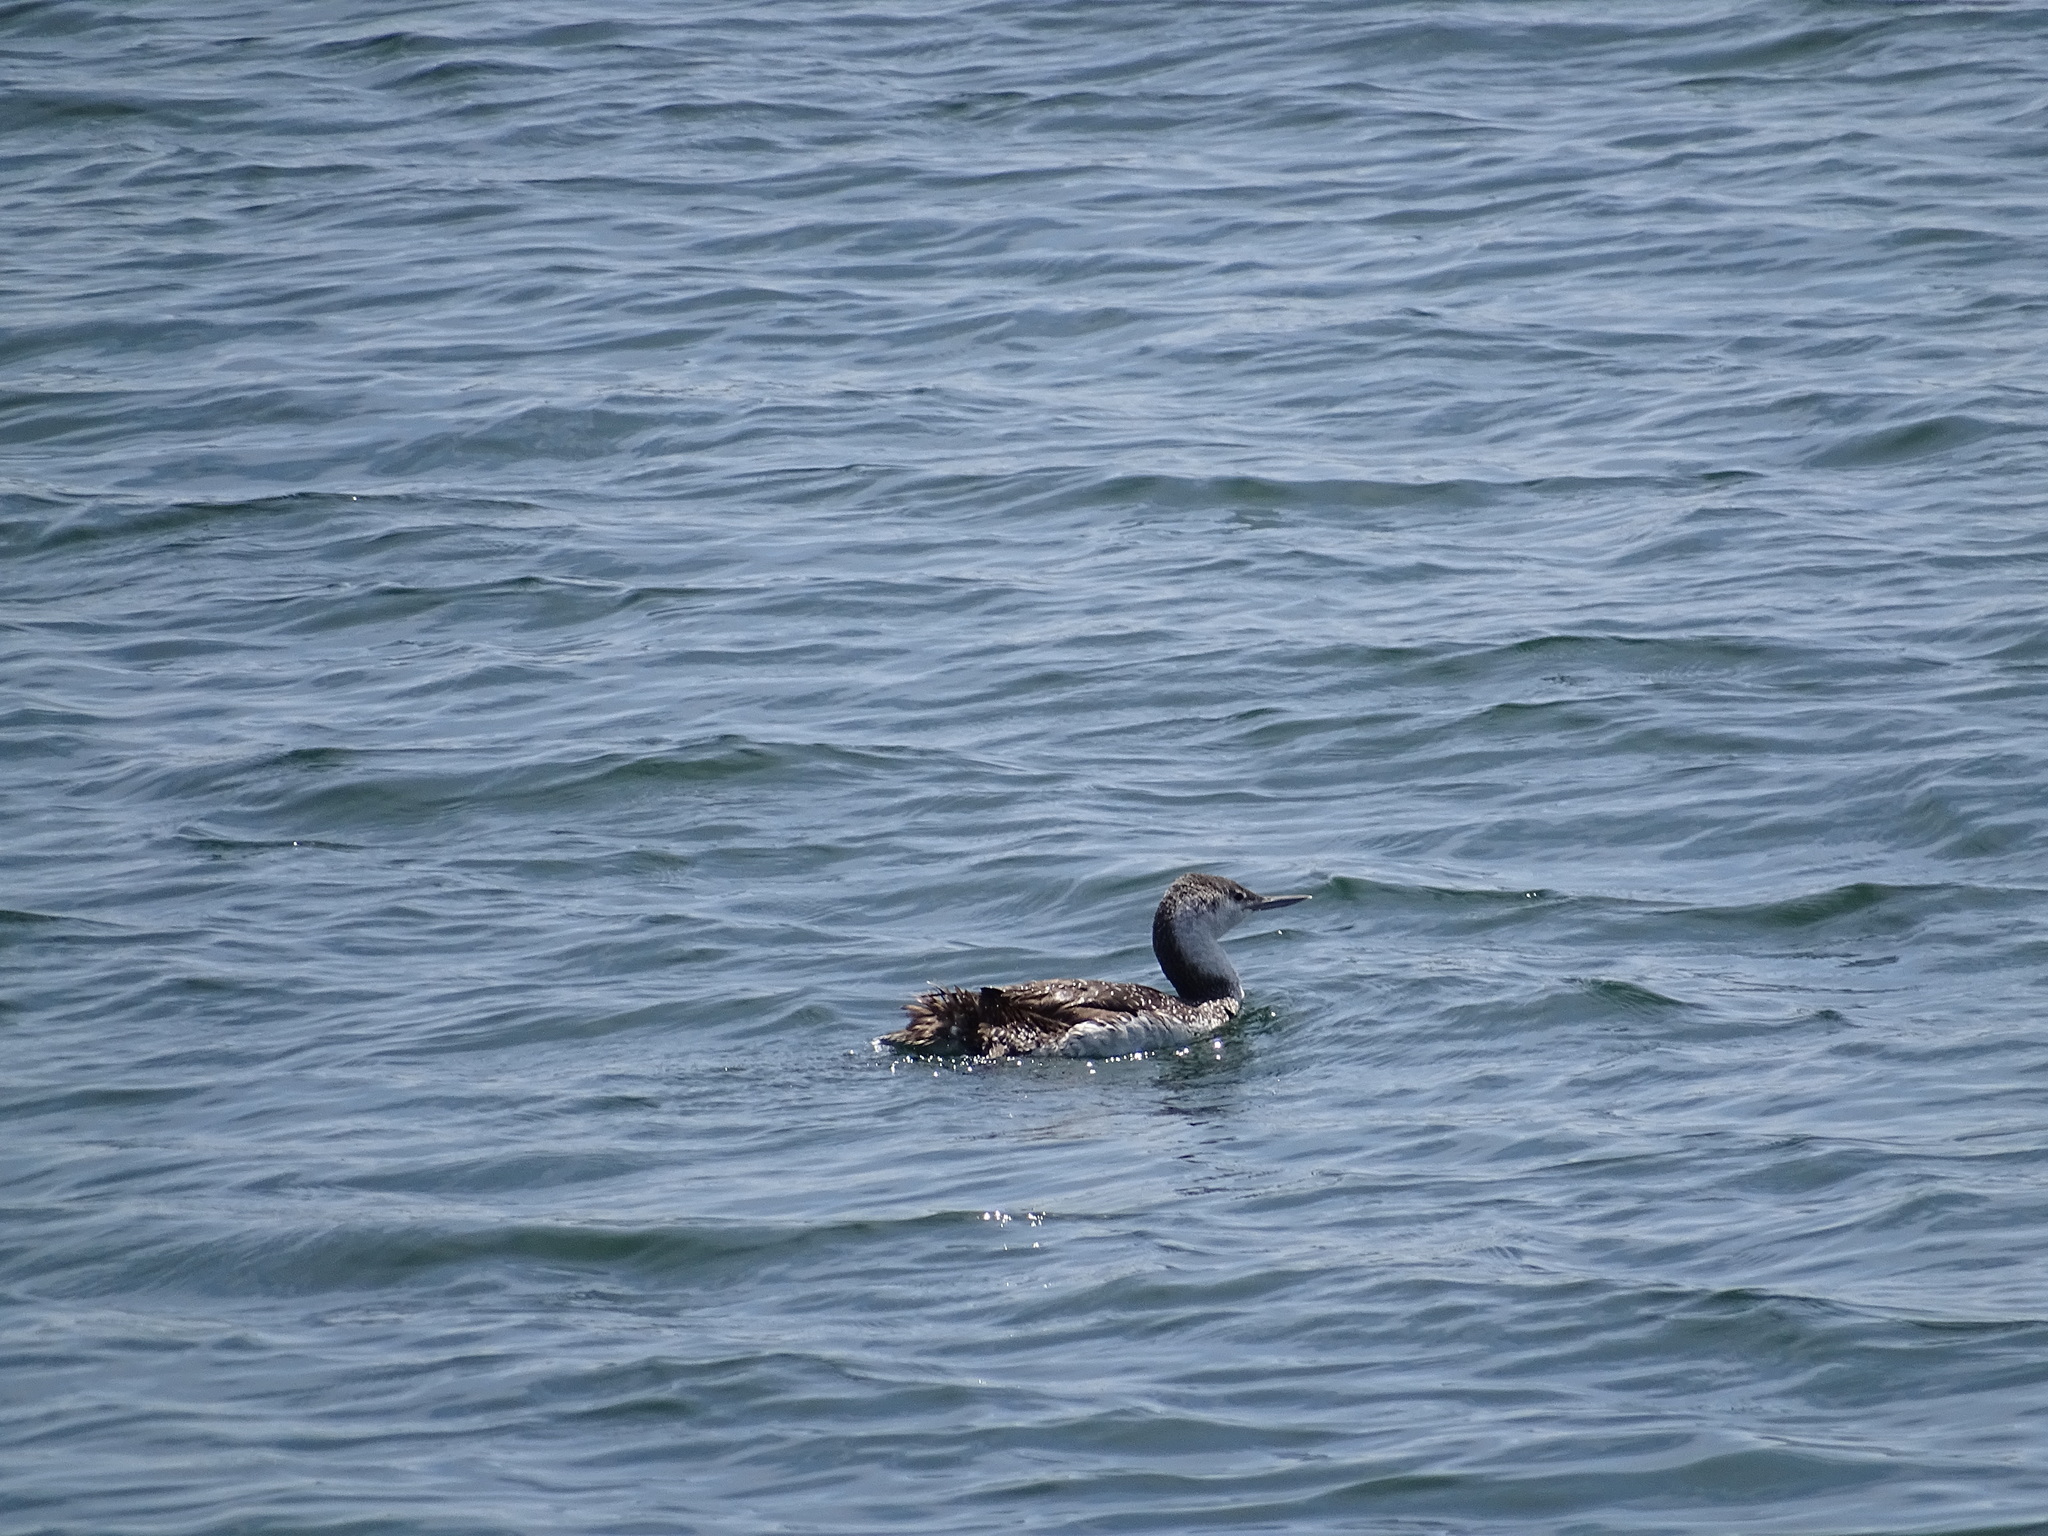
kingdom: Animalia
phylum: Chordata
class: Aves
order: Gaviiformes
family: Gaviidae
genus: Gavia
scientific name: Gavia stellata
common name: Red-throated loon
